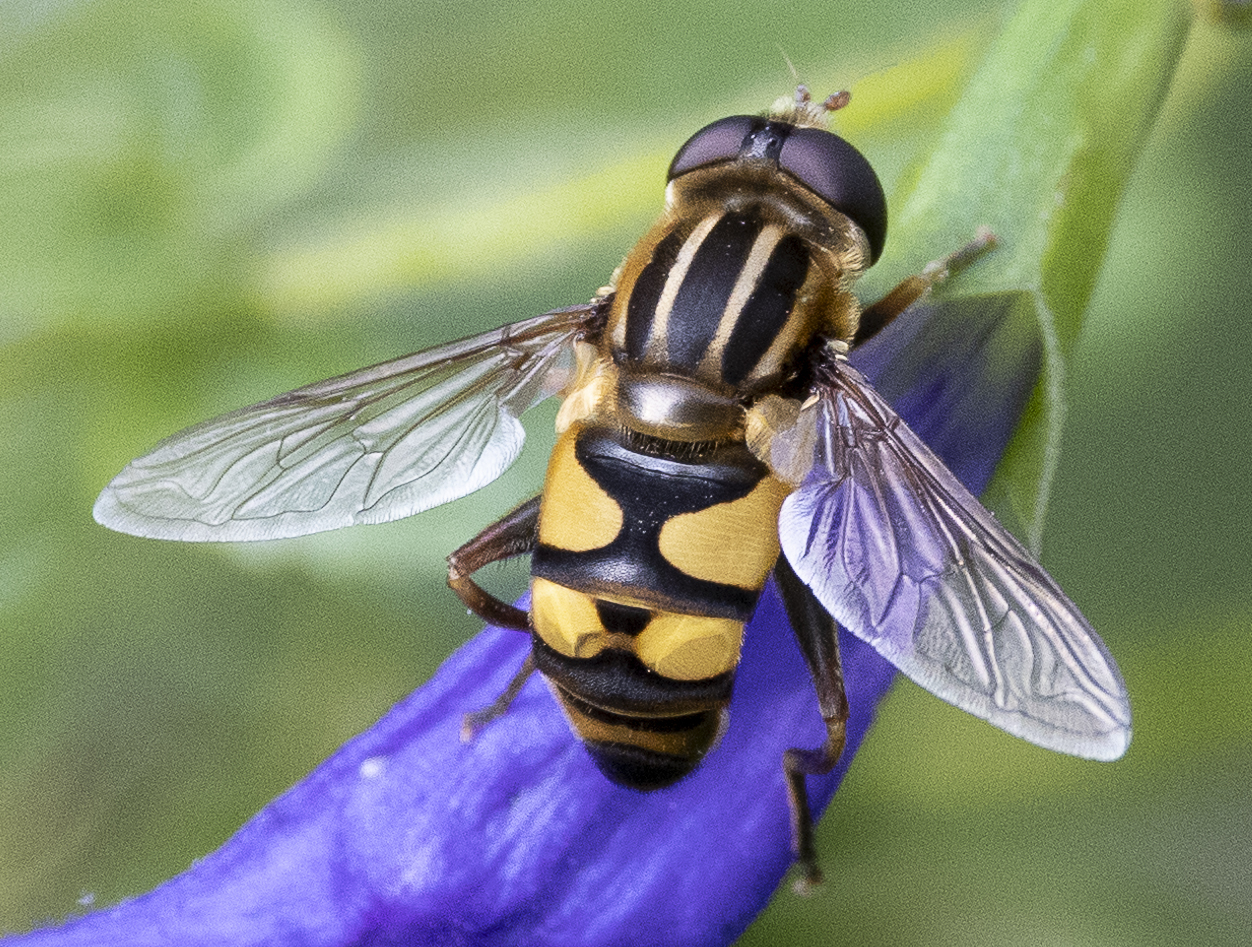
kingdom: Animalia
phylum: Arthropoda
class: Insecta
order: Diptera
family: Syrphidae
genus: Helophilus
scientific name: Helophilus fasciatus
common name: Narrow-headed marsh fly
